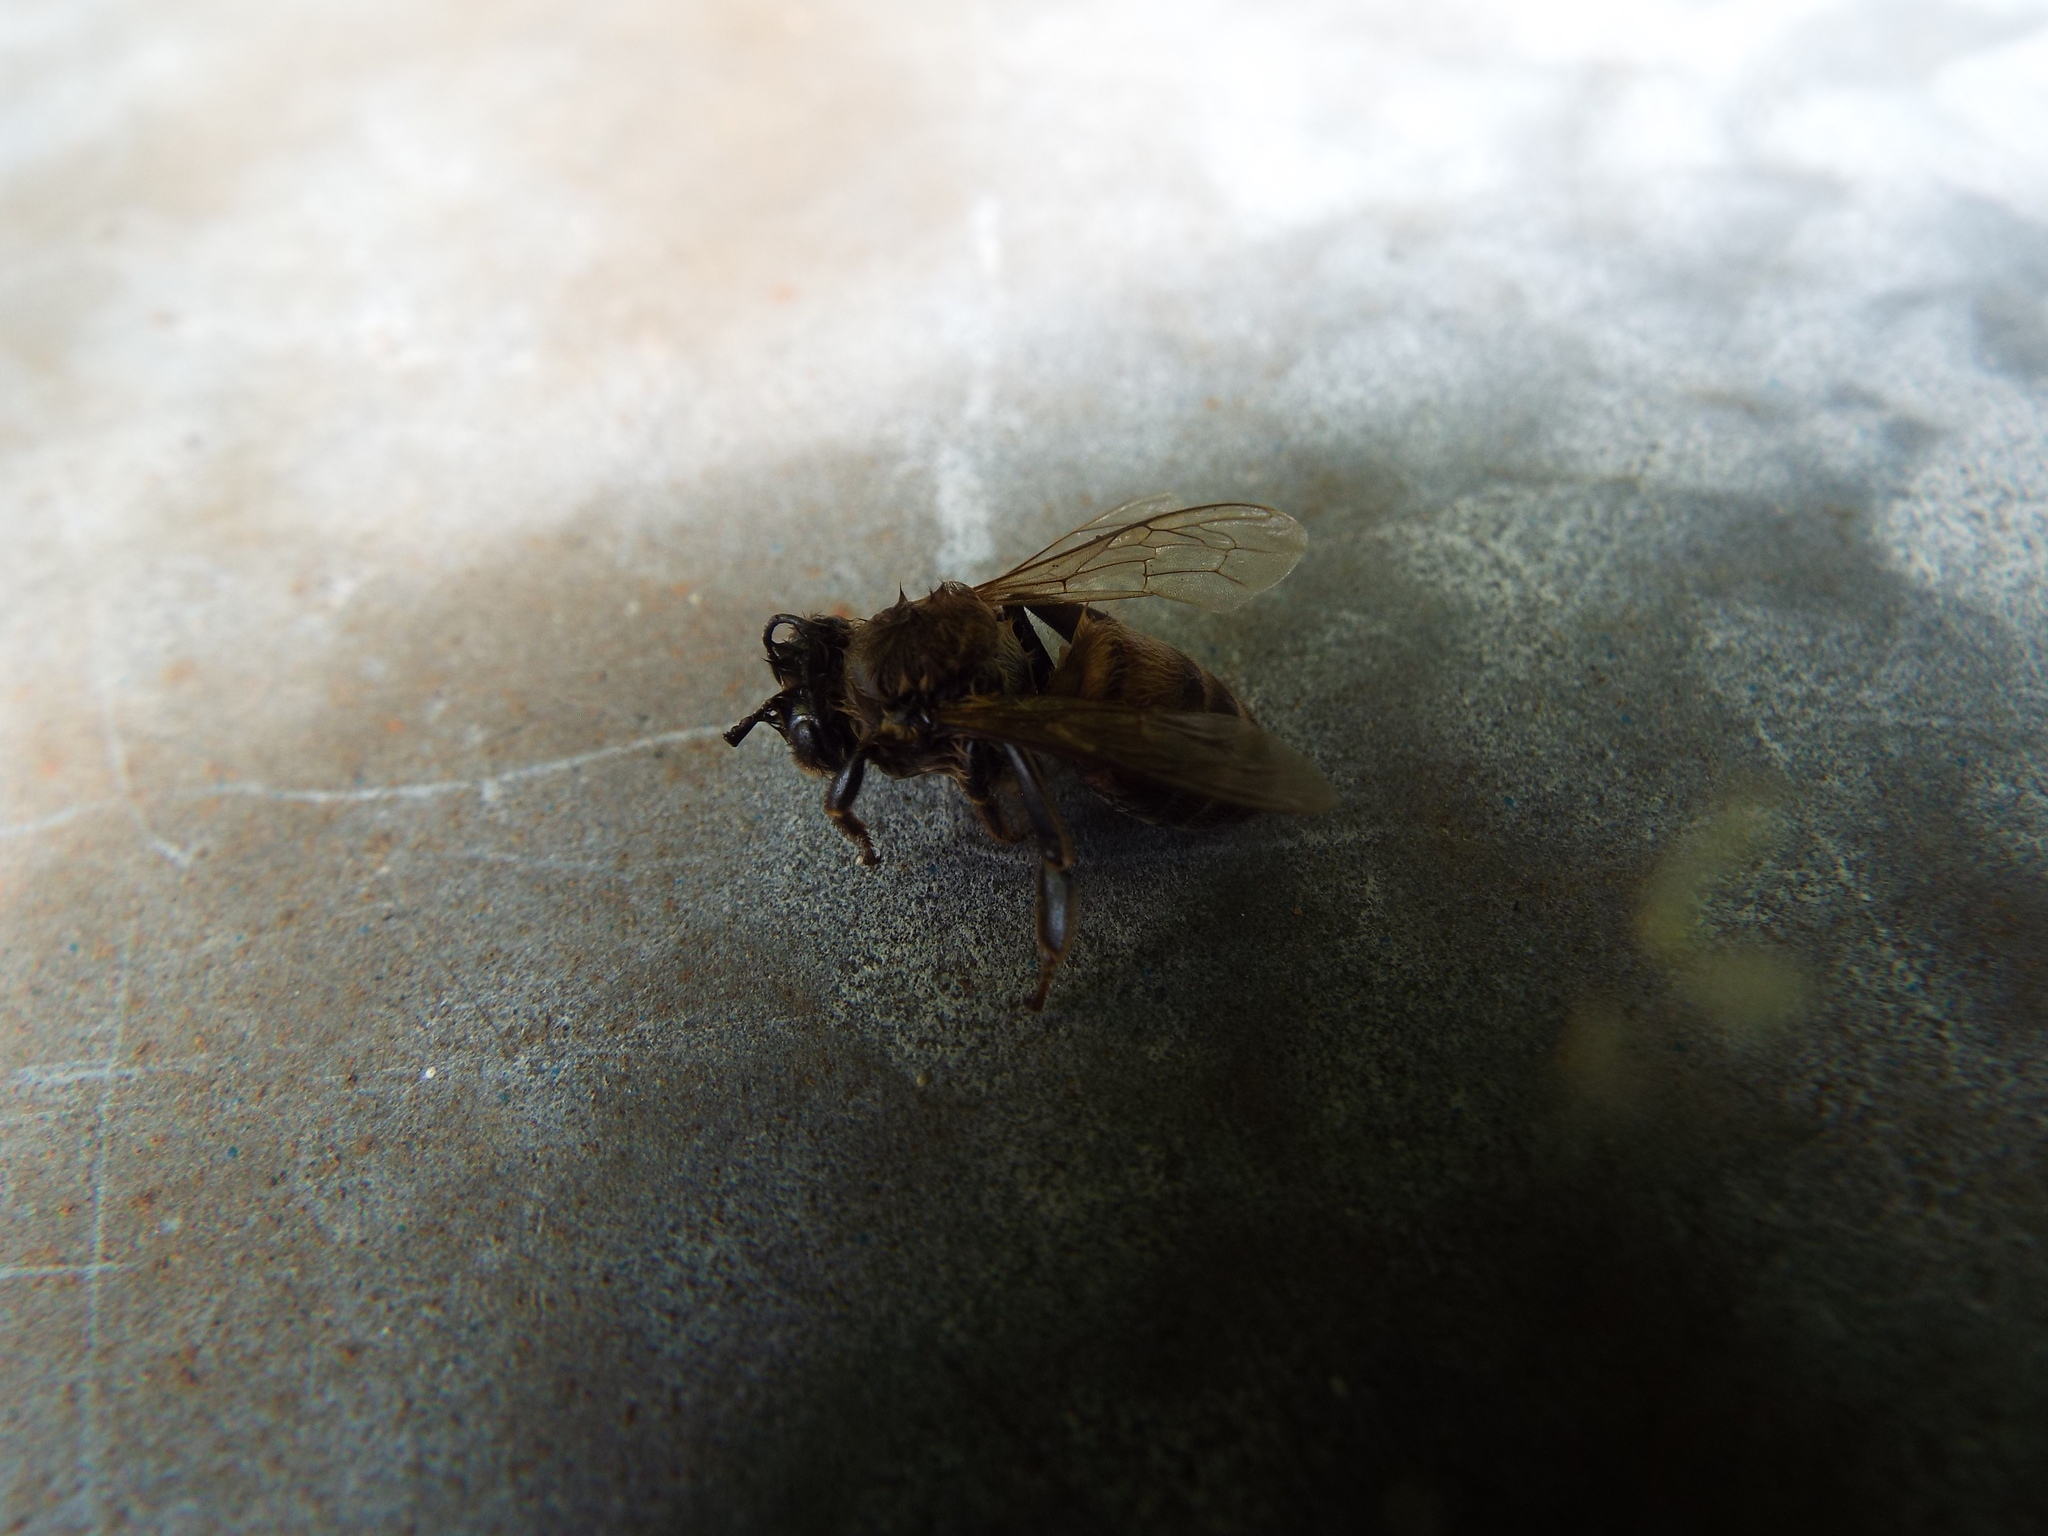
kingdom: Animalia
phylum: Arthropoda
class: Insecta
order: Hymenoptera
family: Apidae
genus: Apis
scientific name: Apis mellifera
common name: Honey bee
